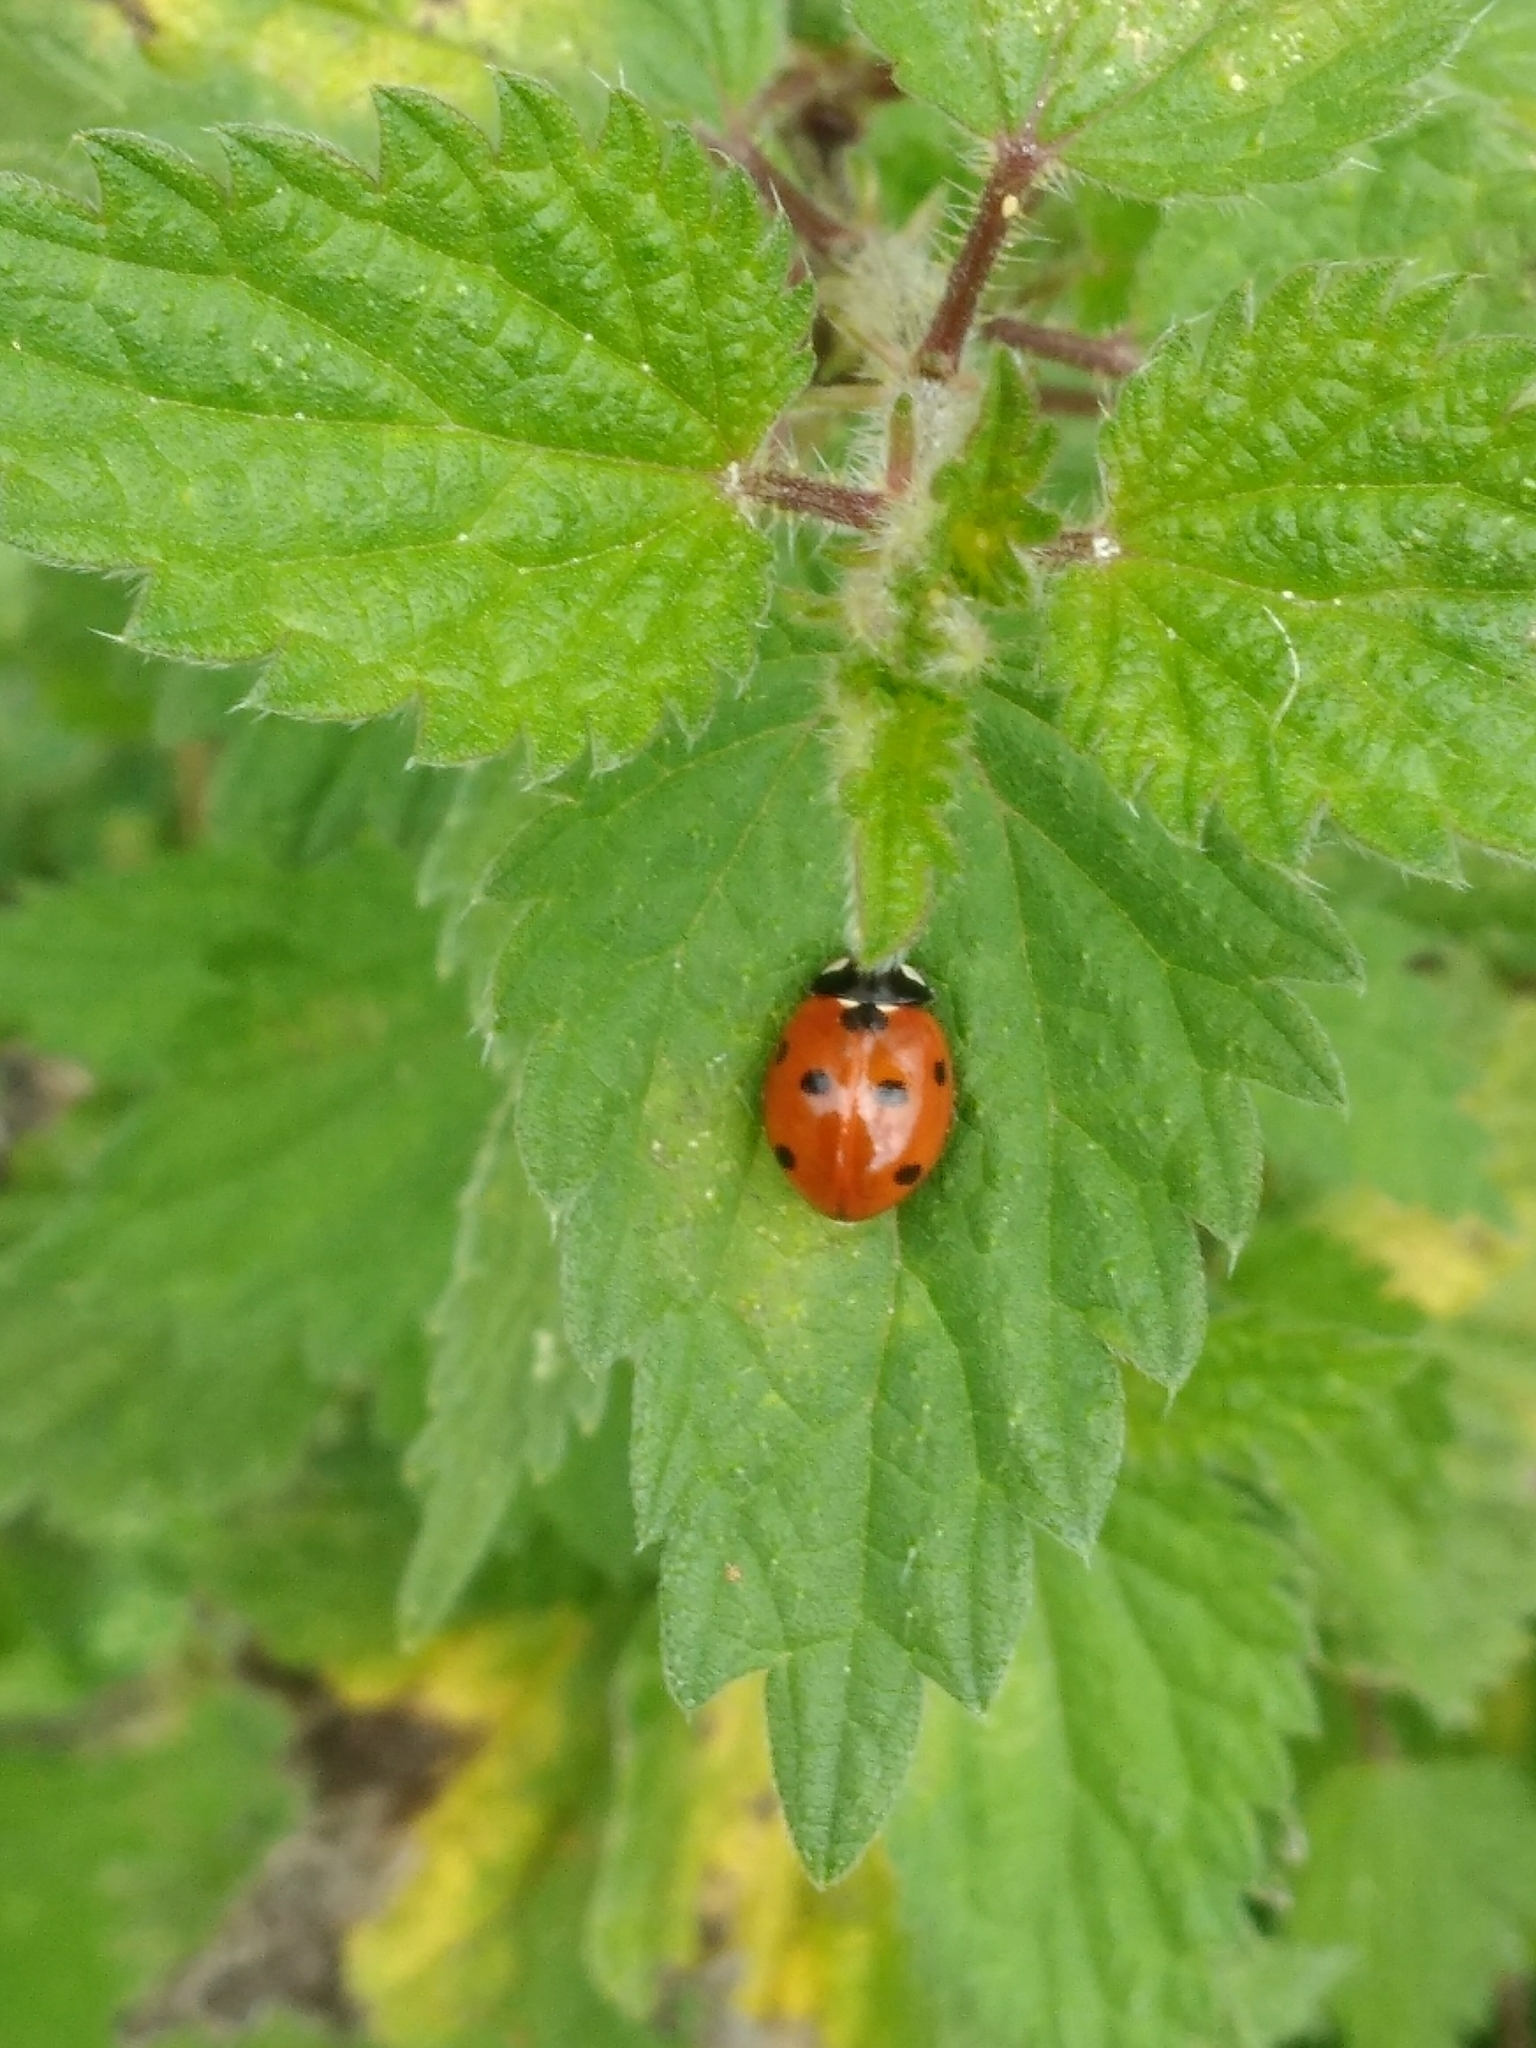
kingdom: Animalia
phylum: Arthropoda
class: Insecta
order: Coleoptera
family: Coccinellidae
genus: Coccinella
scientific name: Coccinella septempunctata
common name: Sevenspotted lady beetle
